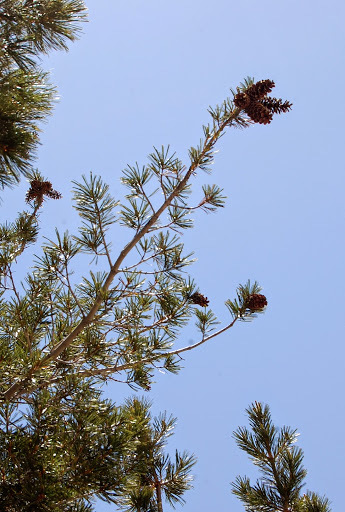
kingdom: Plantae
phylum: Tracheophyta
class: Pinopsida
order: Pinales
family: Pinaceae
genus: Pinus
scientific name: Pinus monticola
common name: Western white pine
